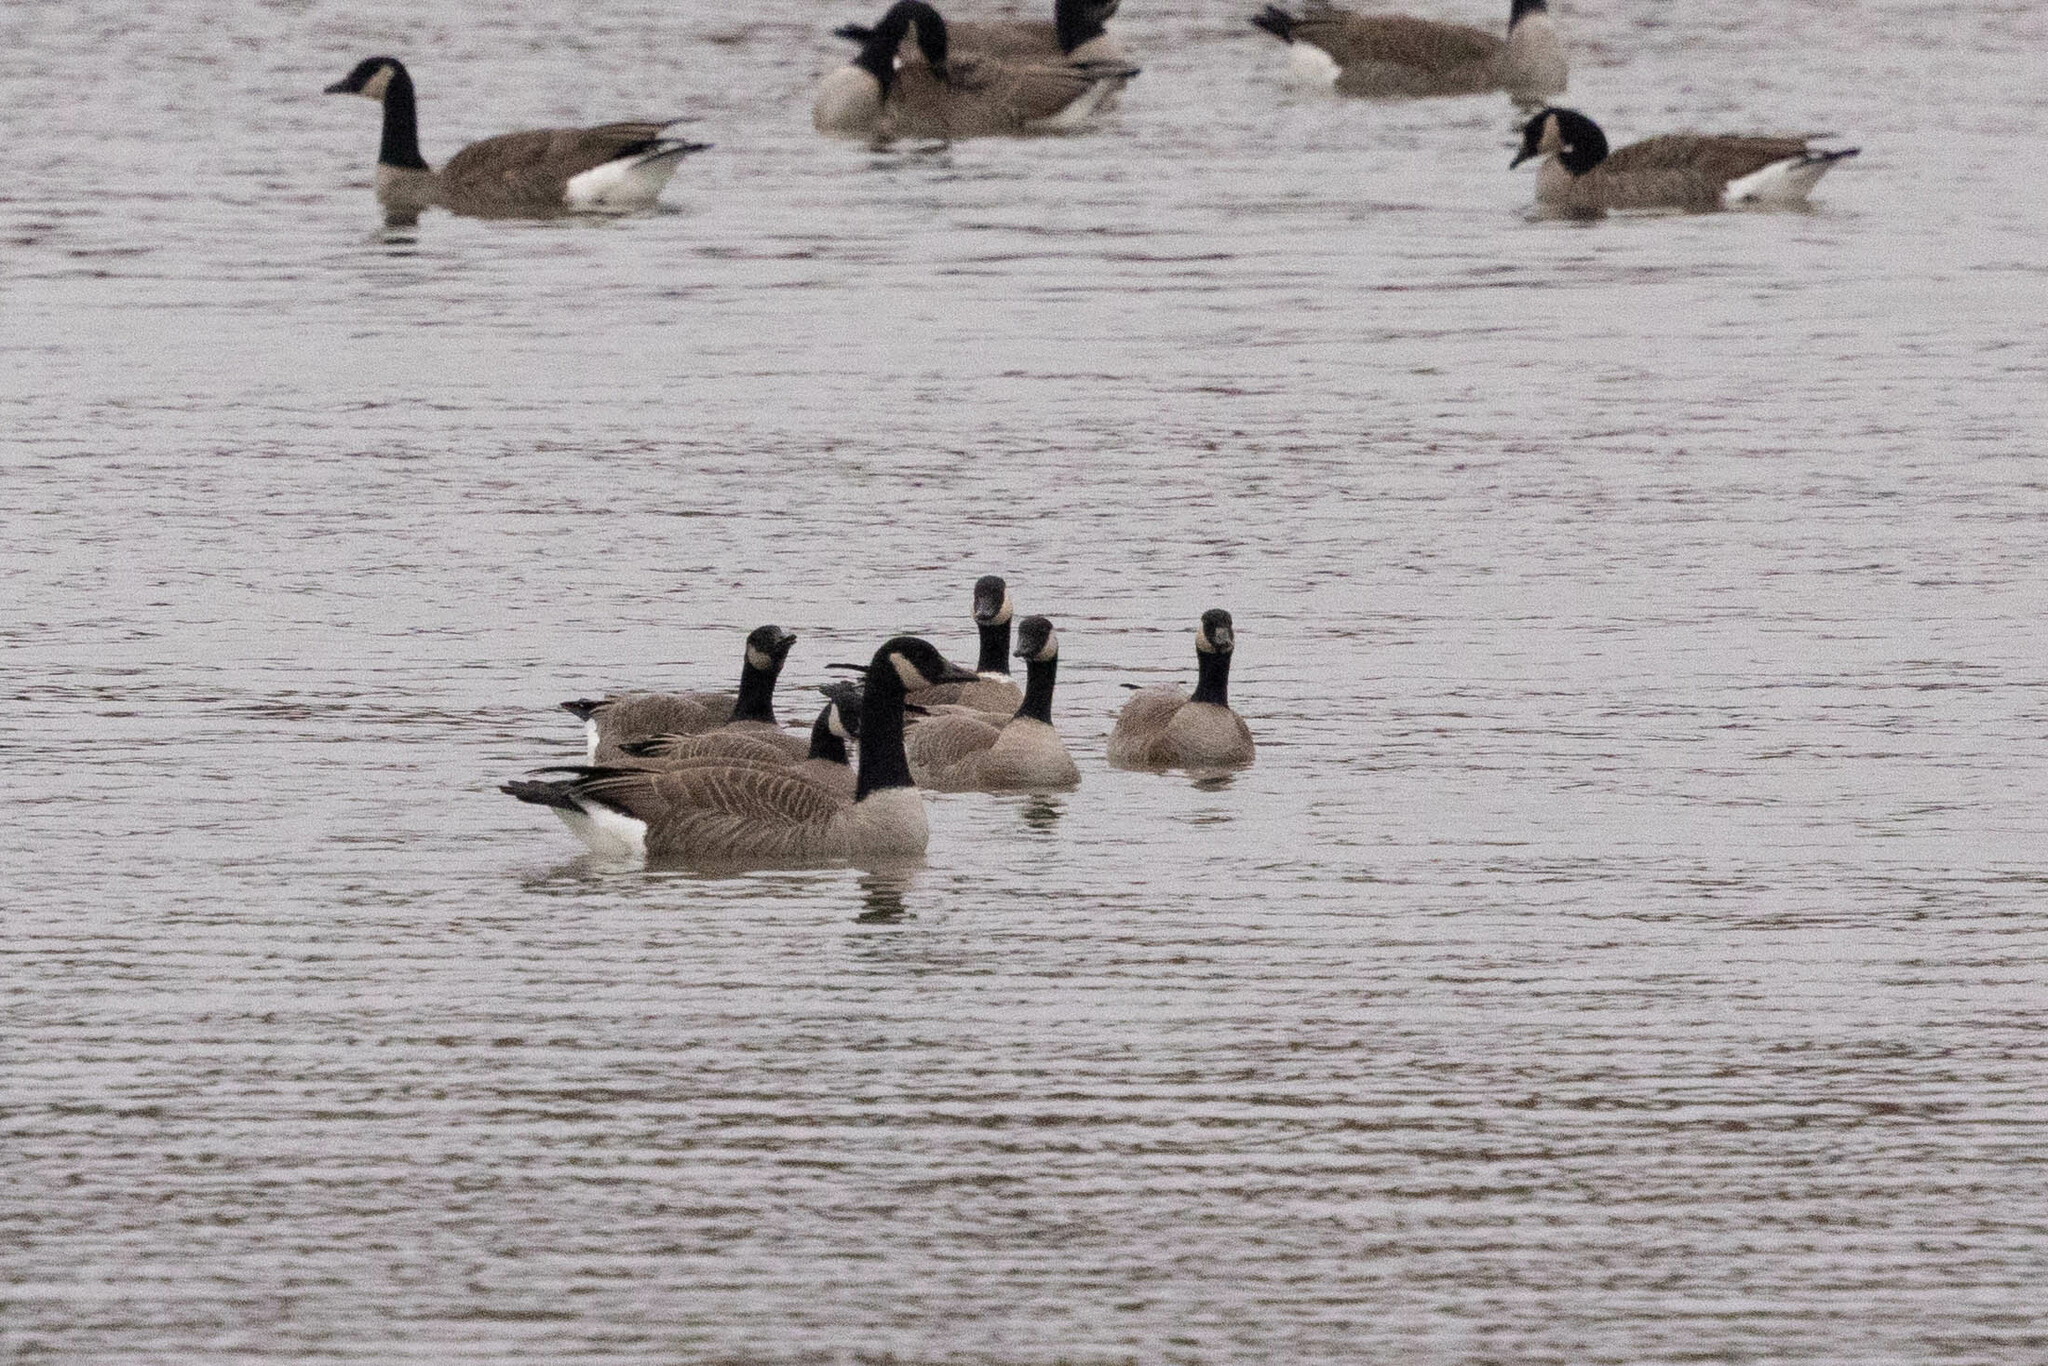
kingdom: Animalia
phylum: Chordata
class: Aves
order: Anseriformes
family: Anatidae
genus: Branta
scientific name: Branta hutchinsii
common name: Cackling goose
